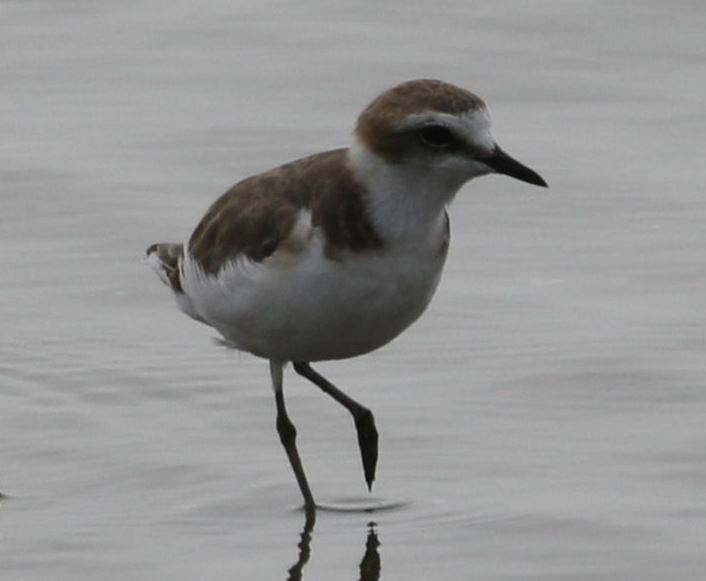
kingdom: Animalia
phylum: Chordata
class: Aves
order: Charadriiformes
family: Charadriidae
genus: Charadrius
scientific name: Charadrius alexandrinus
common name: Kentish plover
